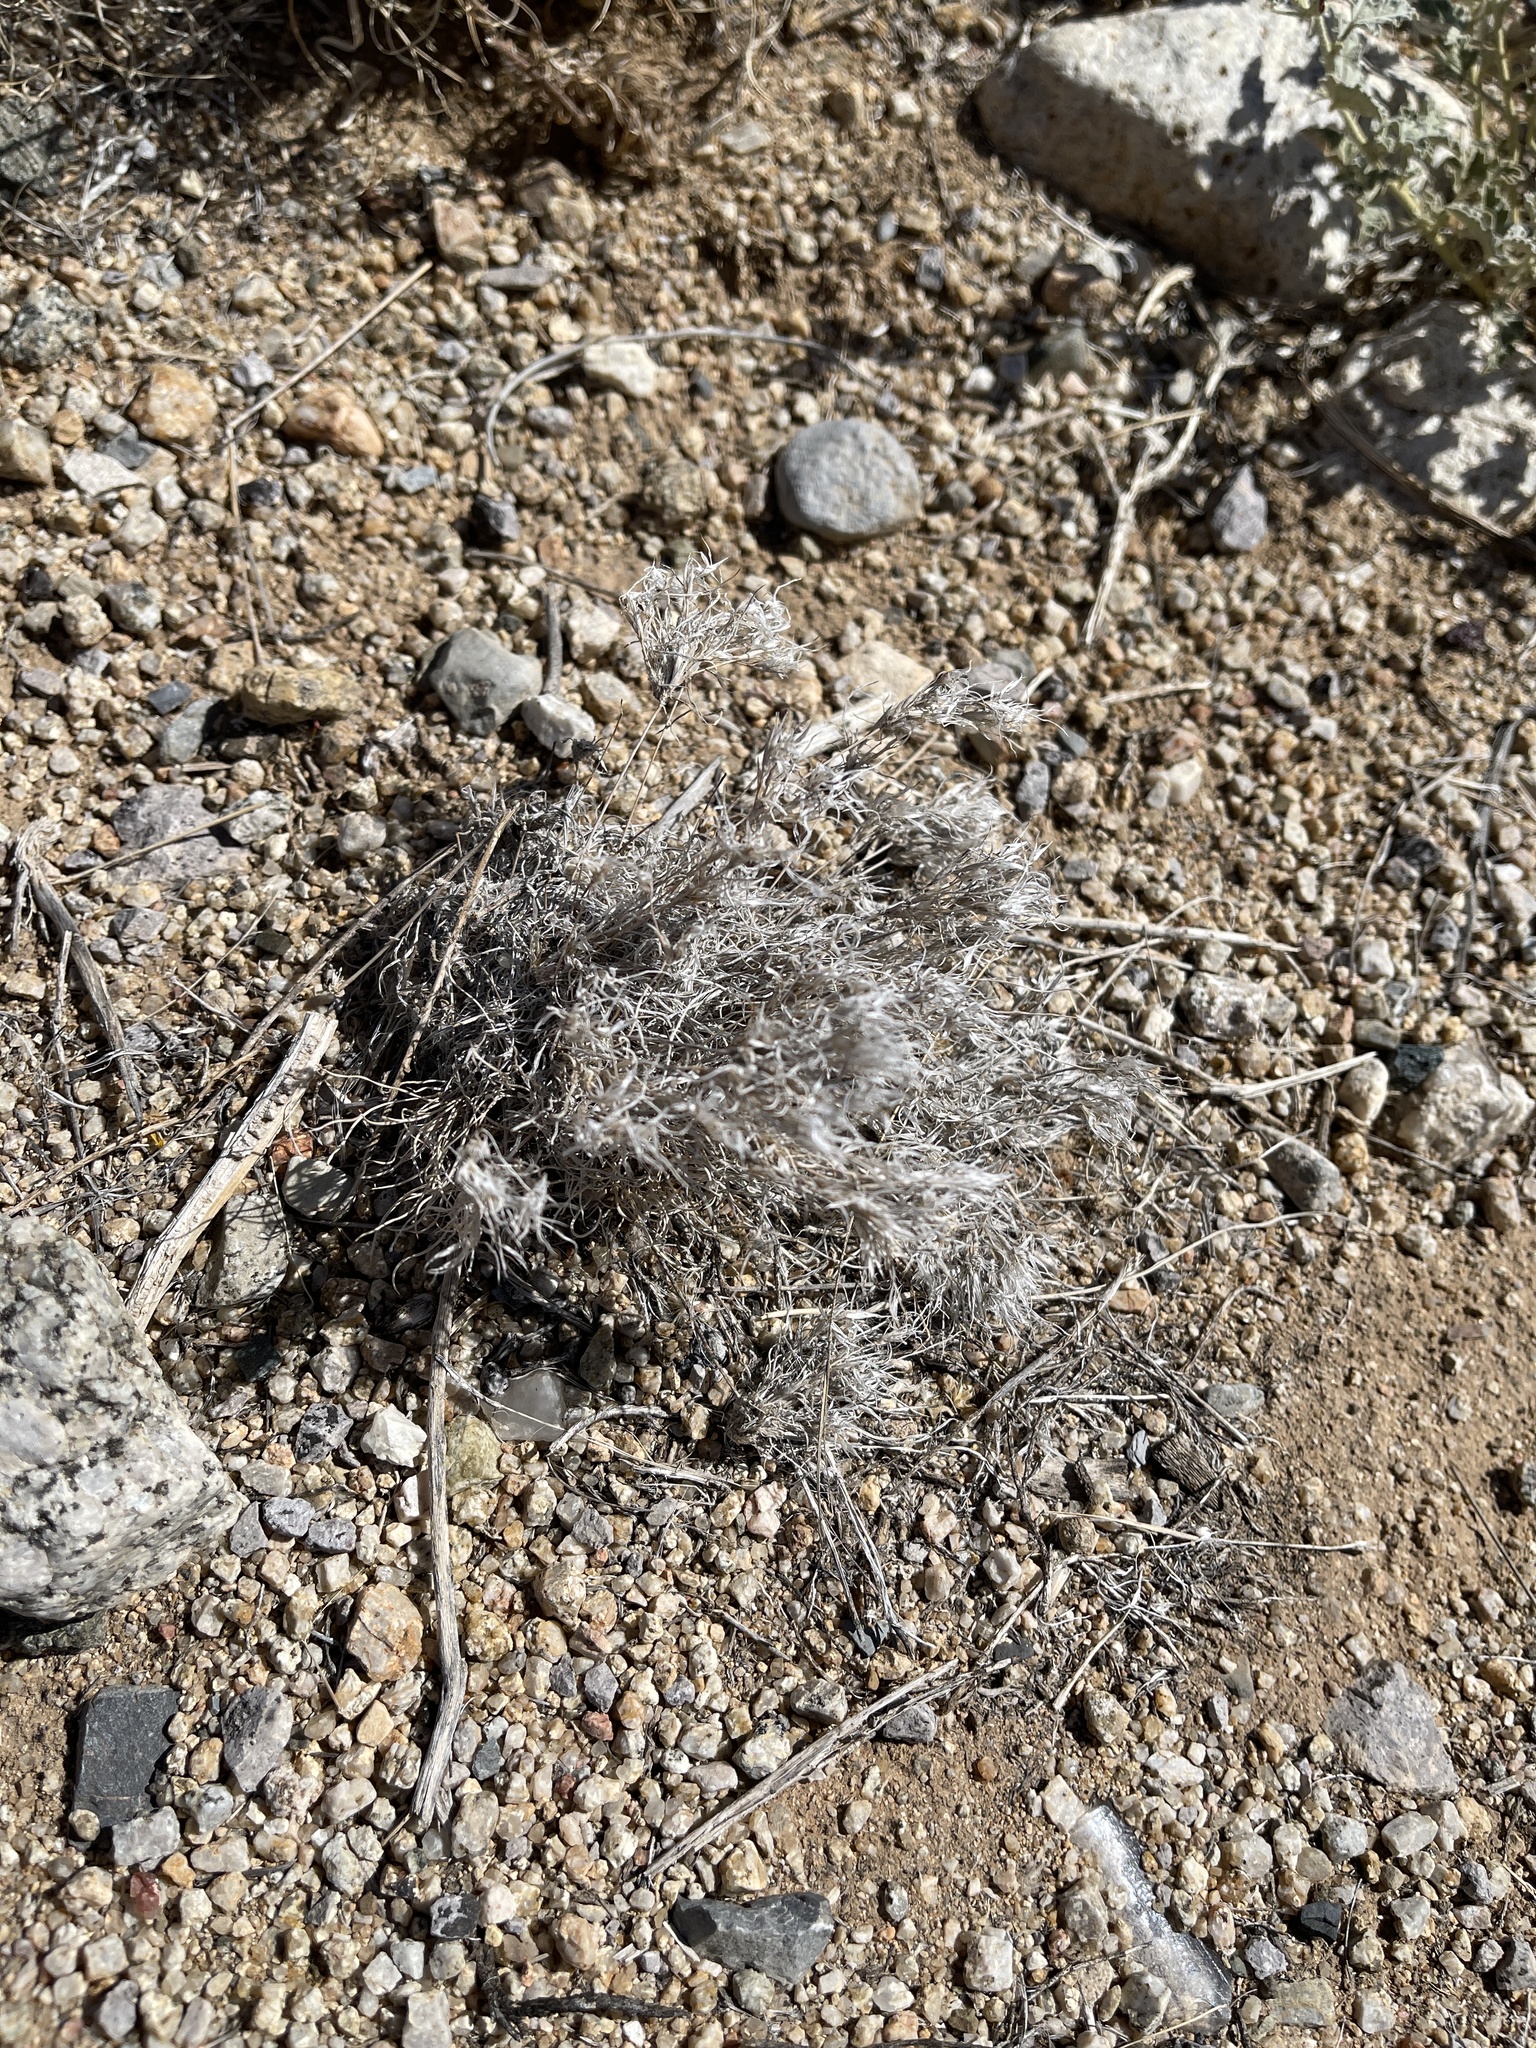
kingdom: Plantae
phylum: Tracheophyta
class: Liliopsida
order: Poales
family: Poaceae
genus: Dasyochloa
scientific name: Dasyochloa pulchella
